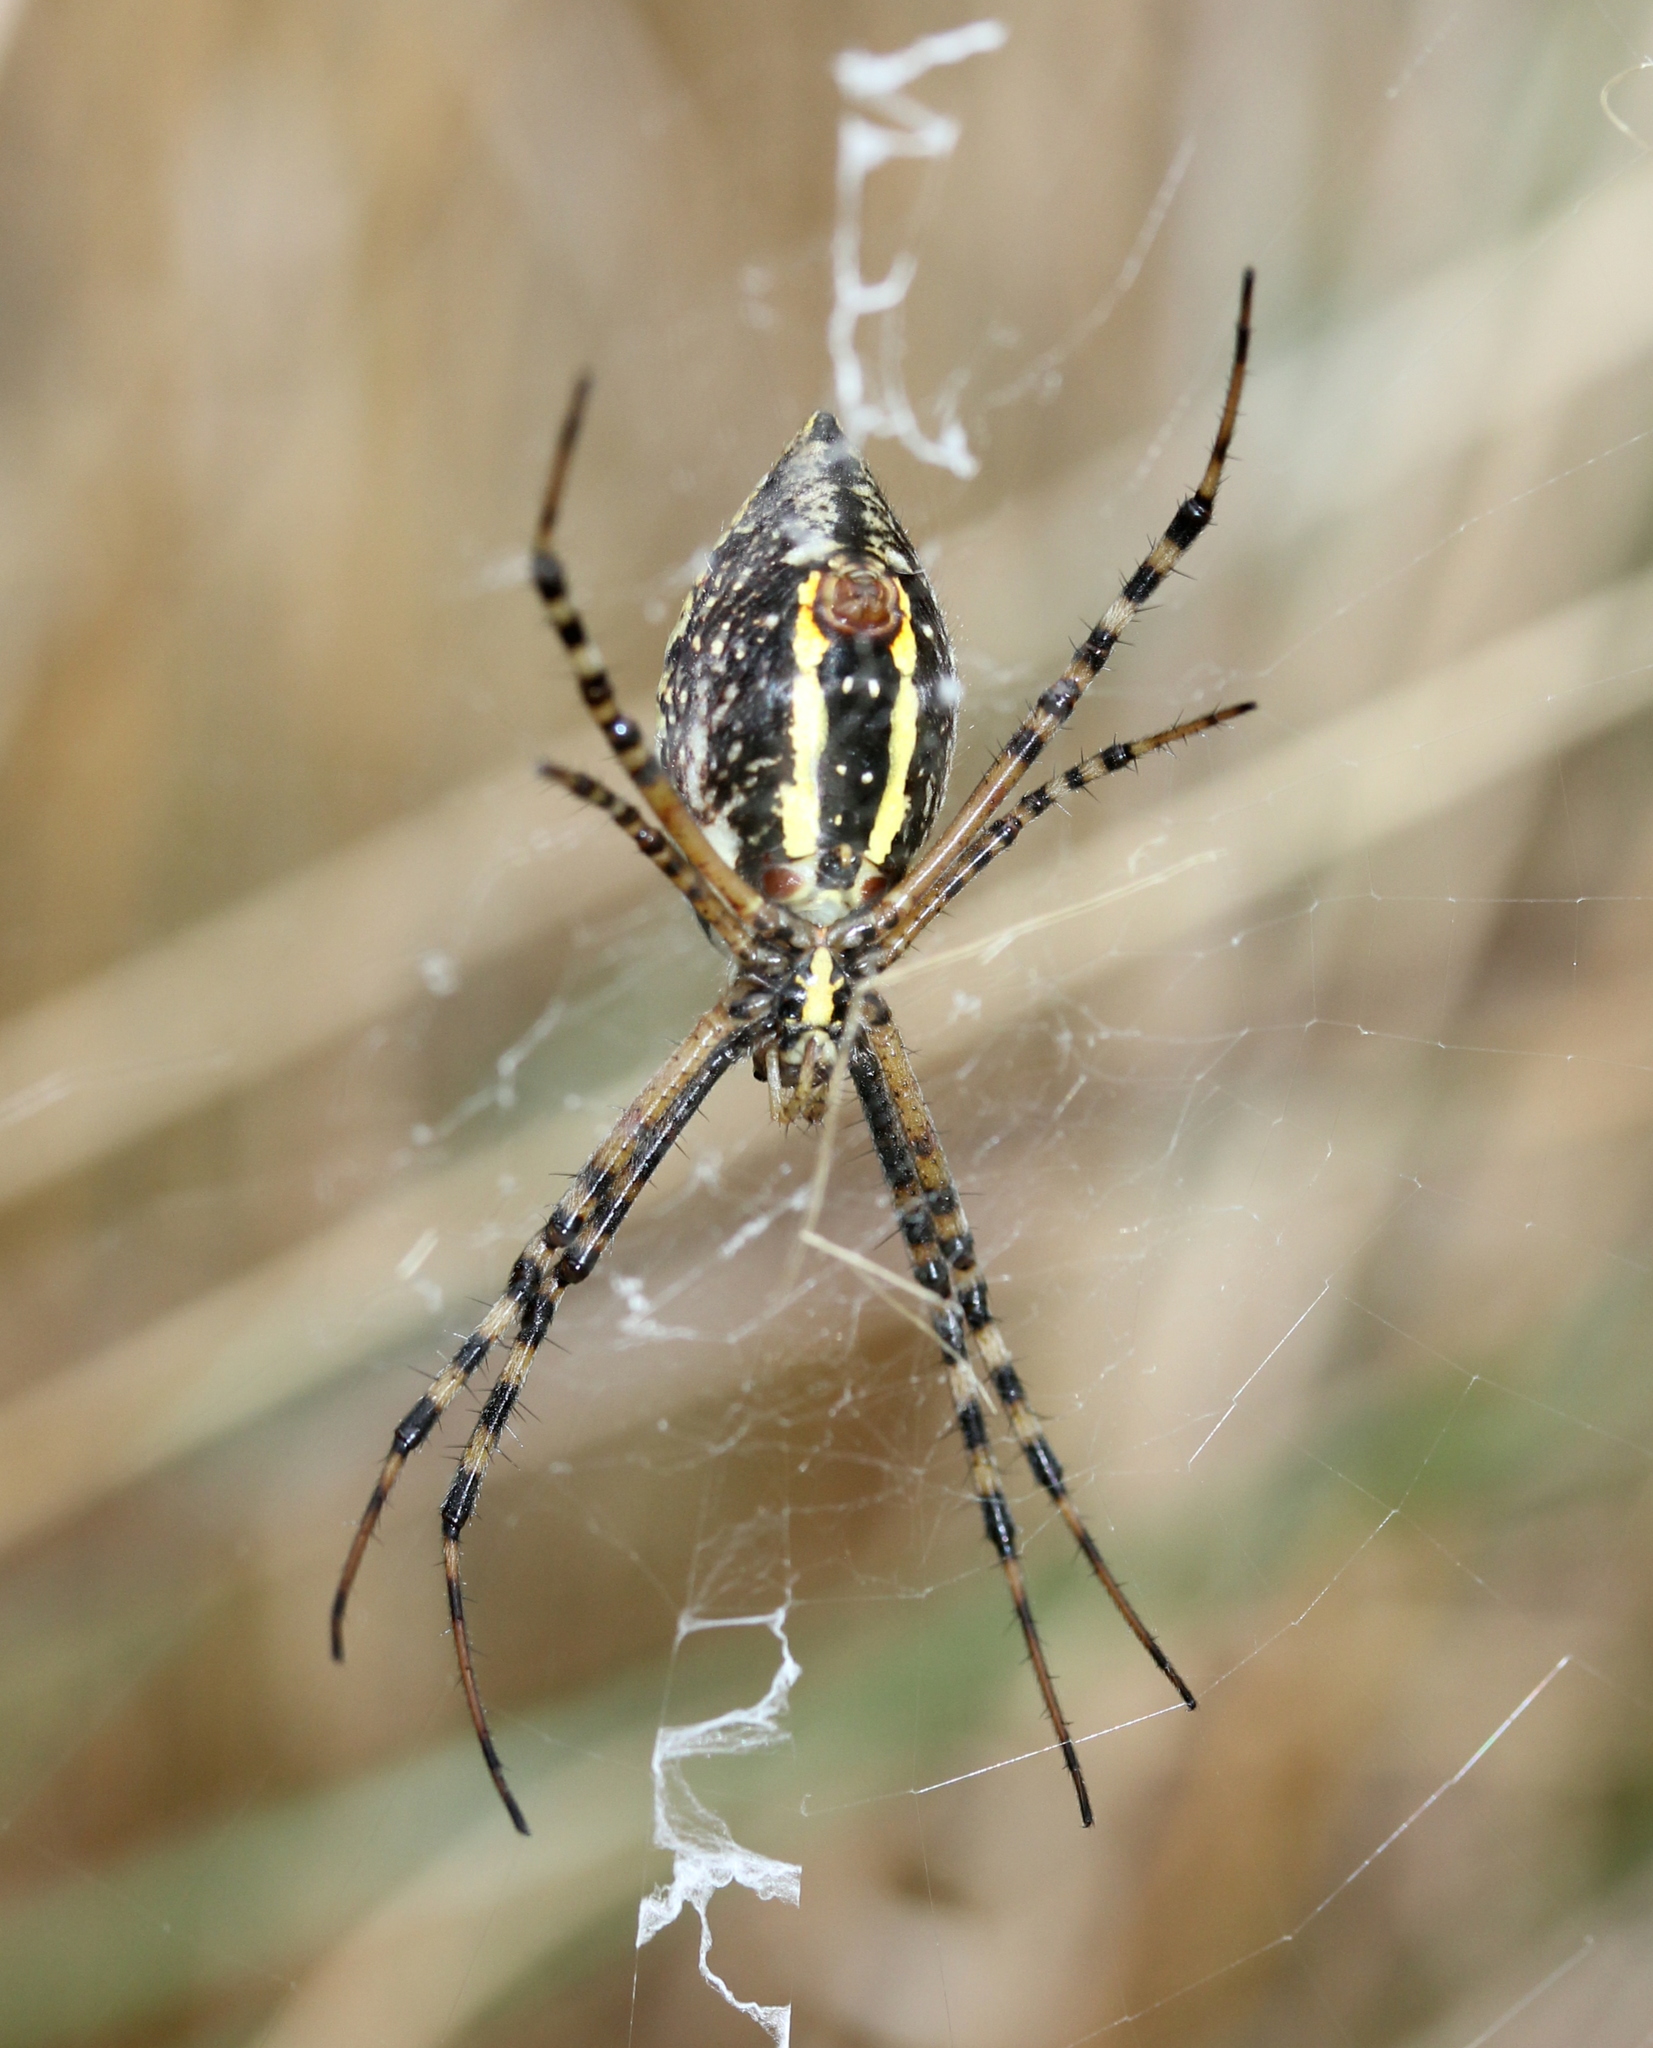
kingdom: Animalia
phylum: Arthropoda
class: Arachnida
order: Araneae
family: Araneidae
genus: Argiope
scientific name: Argiope trifasciata
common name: Banded garden spider
